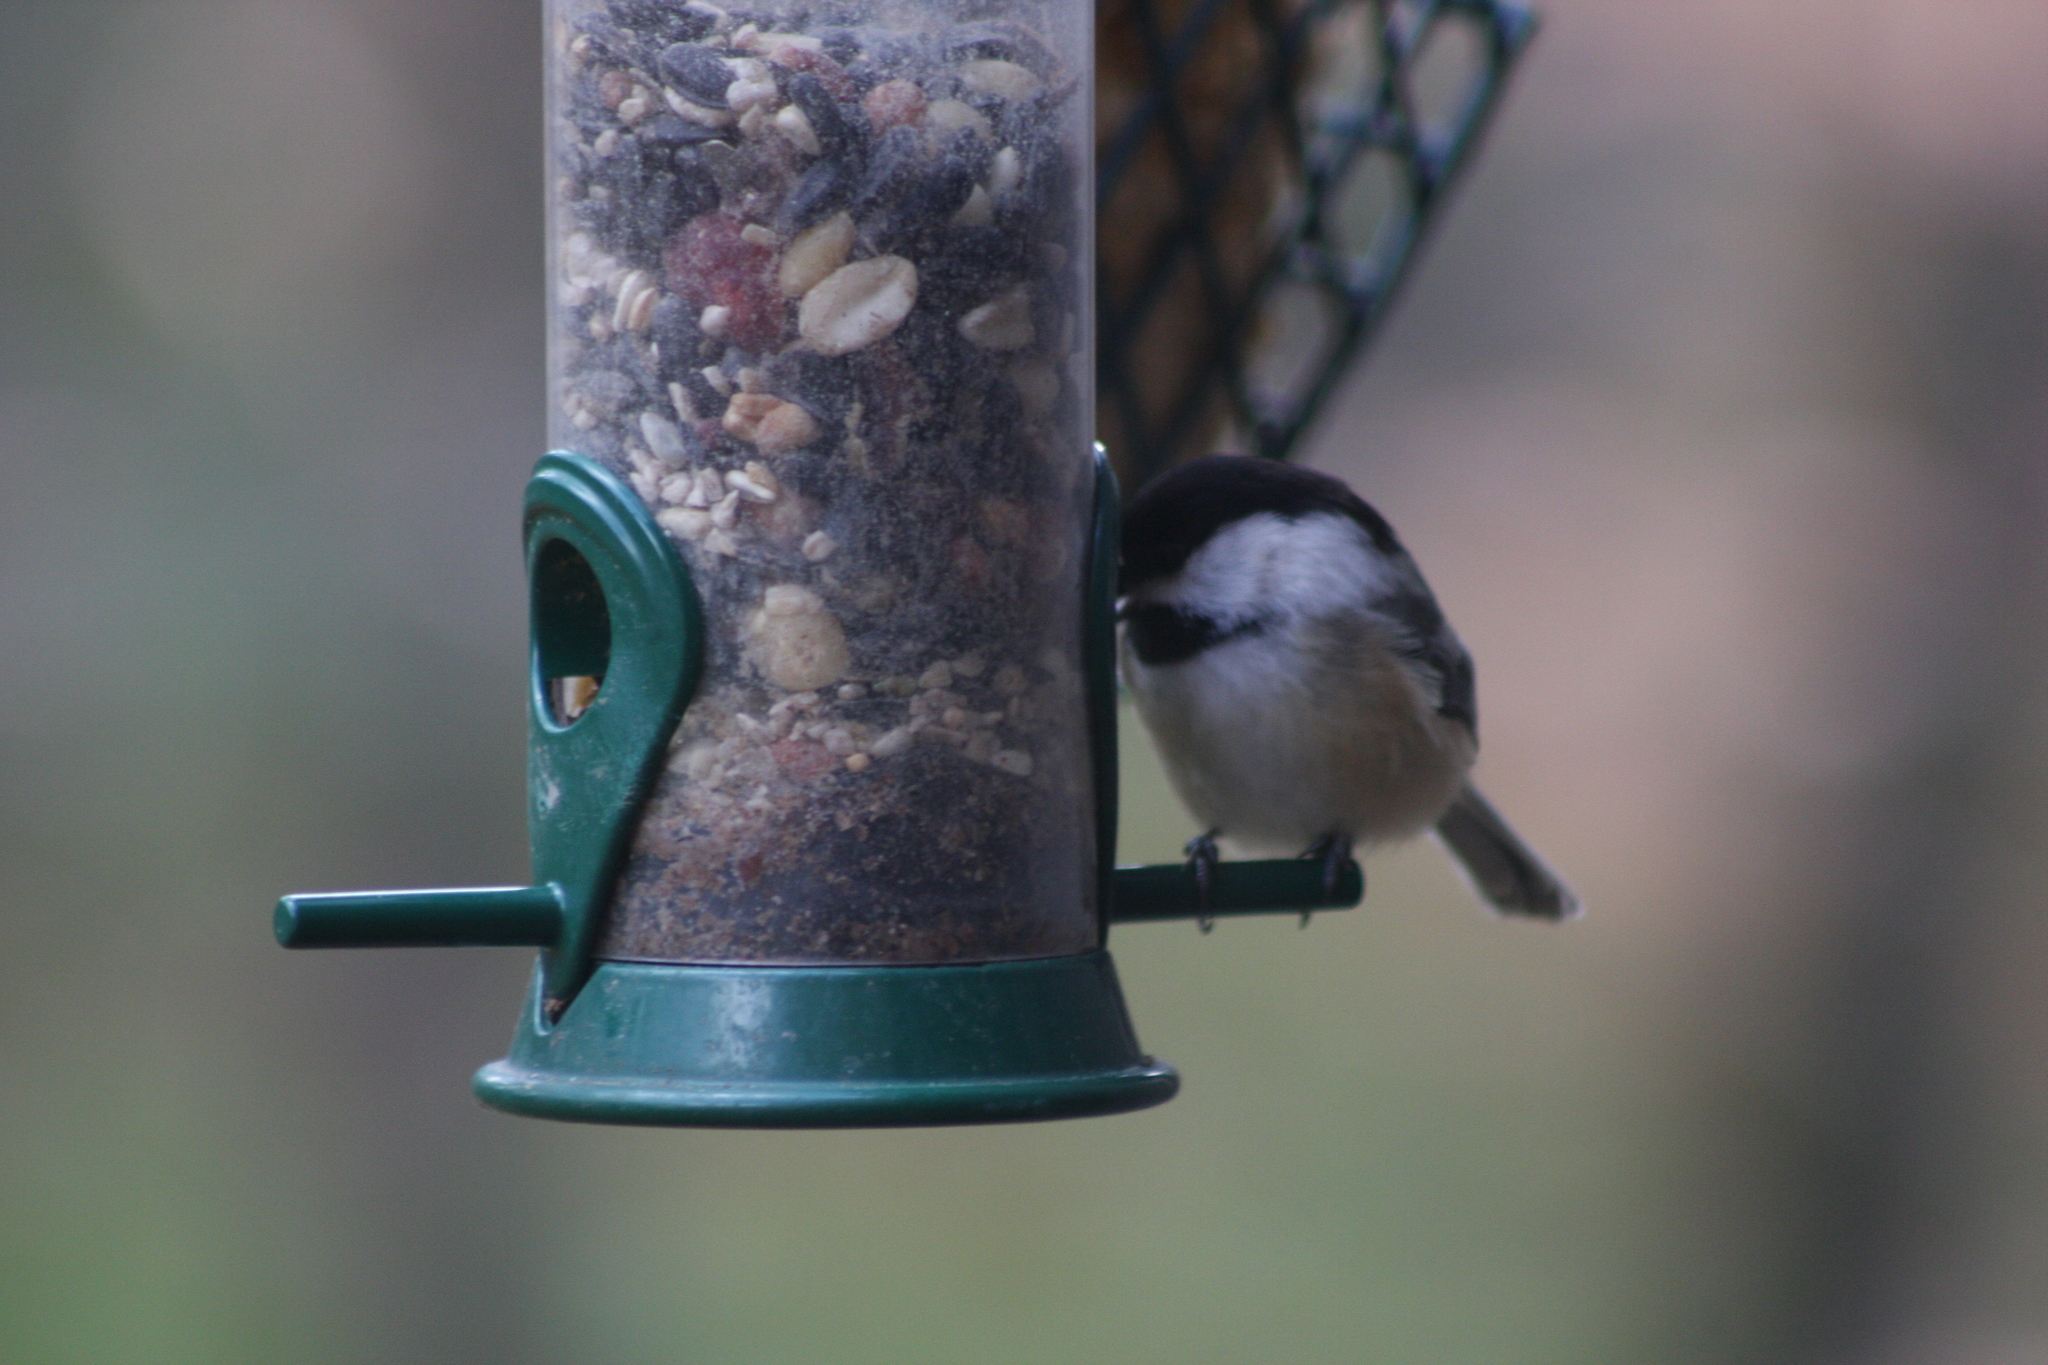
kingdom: Animalia
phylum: Chordata
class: Aves
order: Passeriformes
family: Paridae
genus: Poecile
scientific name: Poecile atricapillus
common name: Black-capped chickadee
